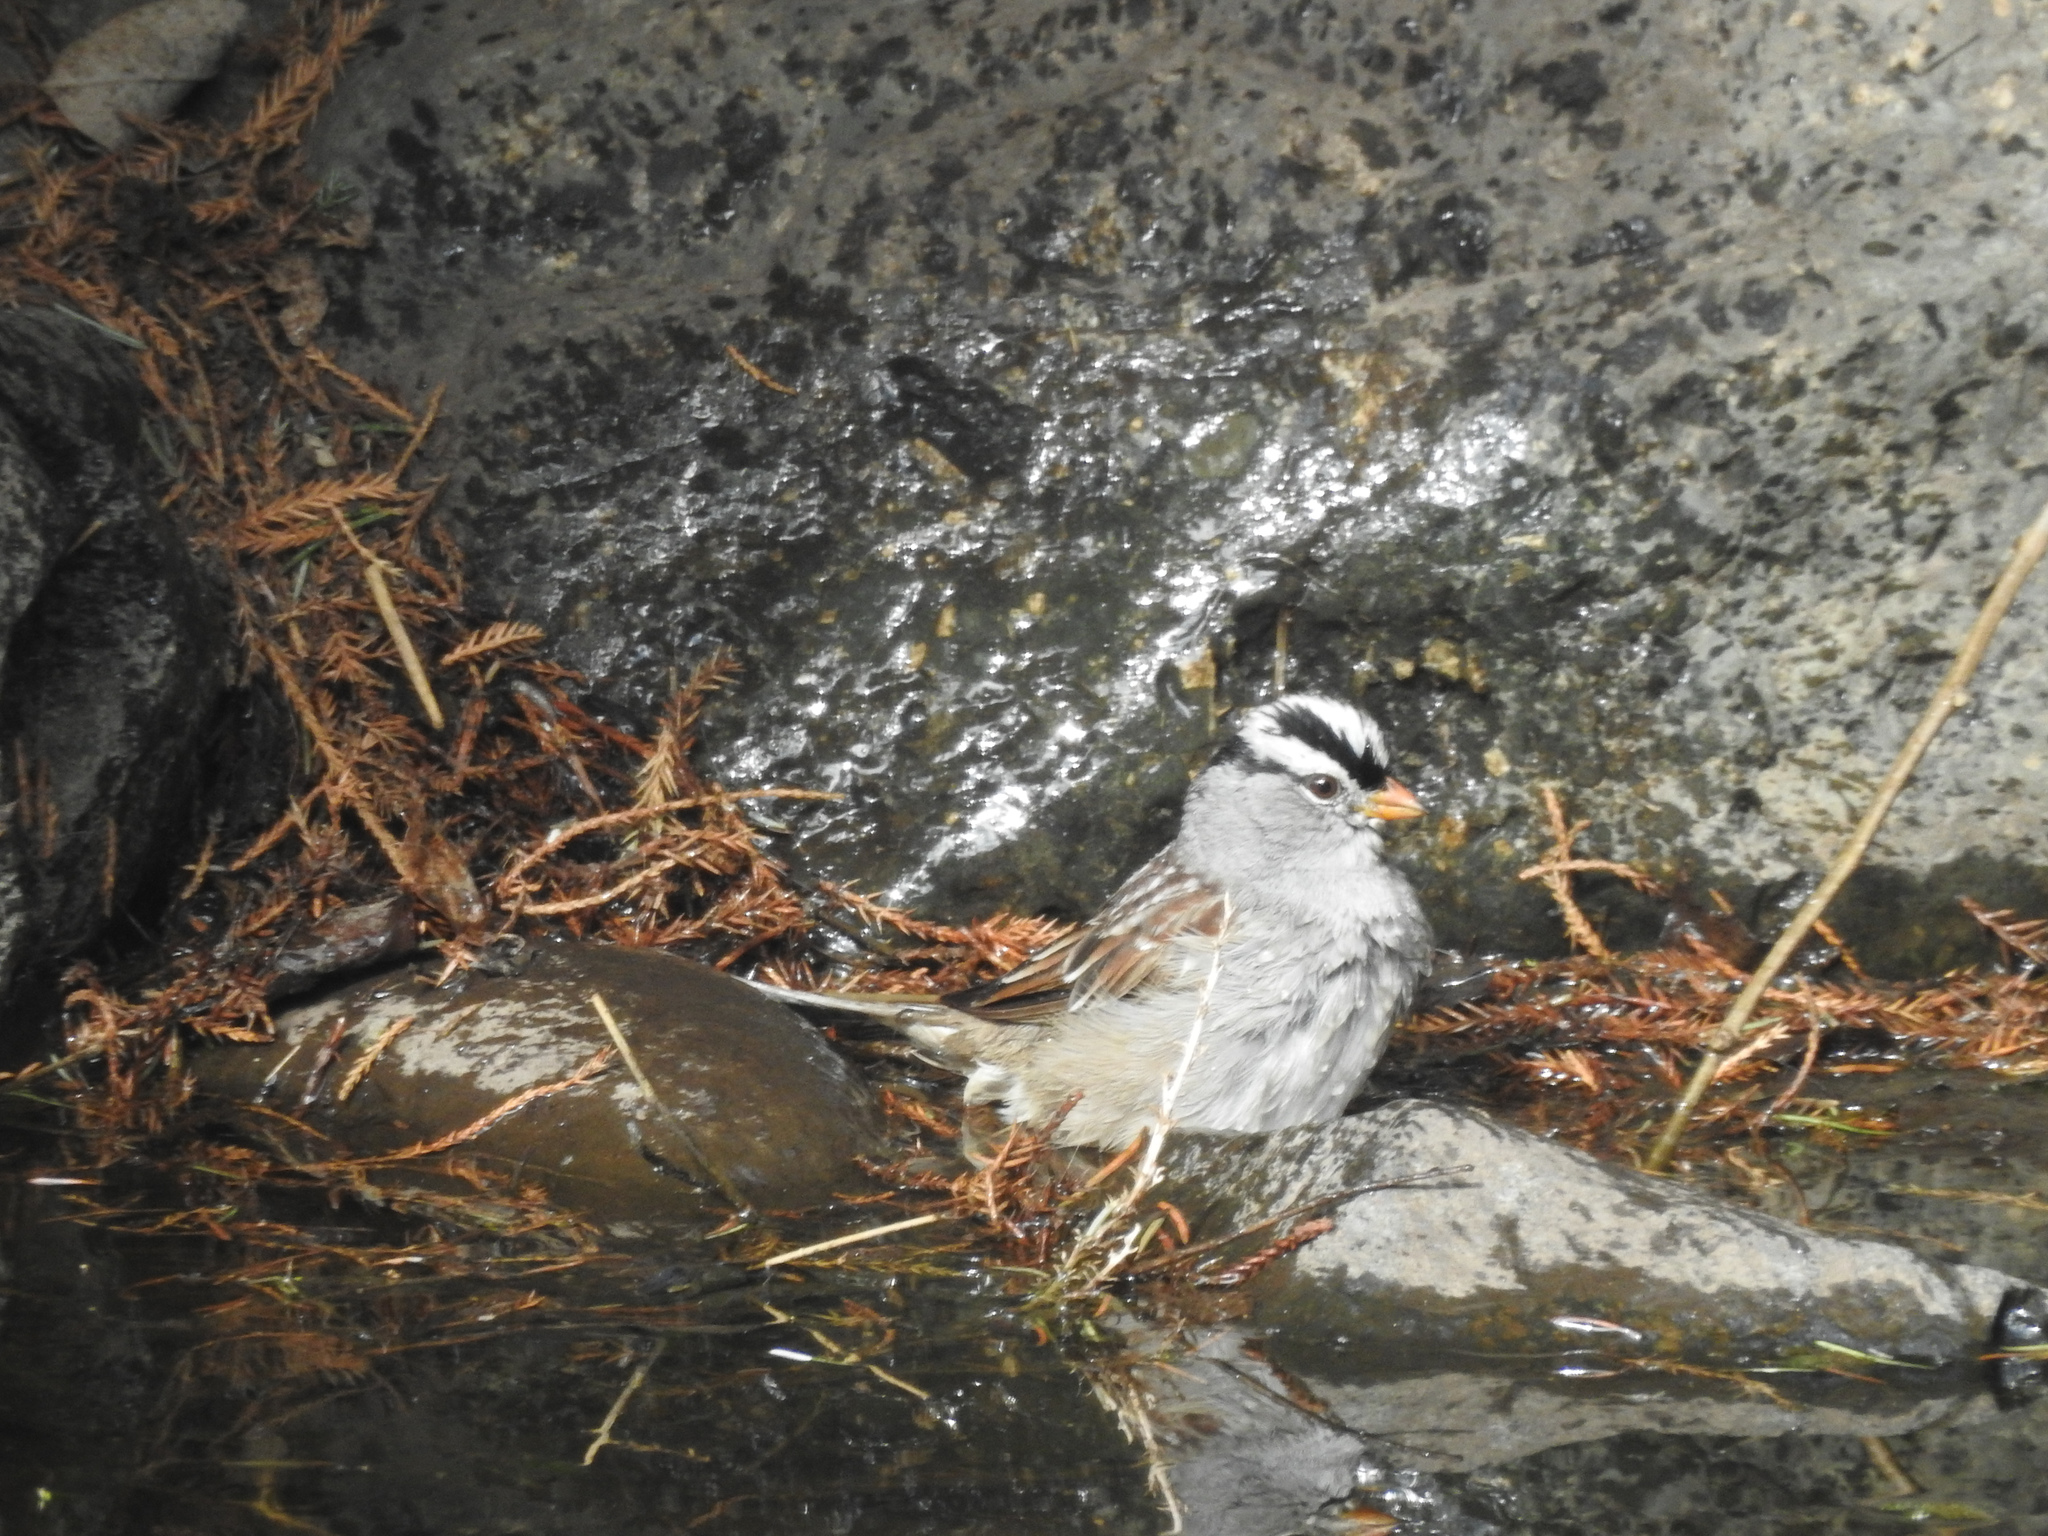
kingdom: Animalia
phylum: Chordata
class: Aves
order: Passeriformes
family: Passerellidae
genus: Zonotrichia
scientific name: Zonotrichia leucophrys
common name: White-crowned sparrow
